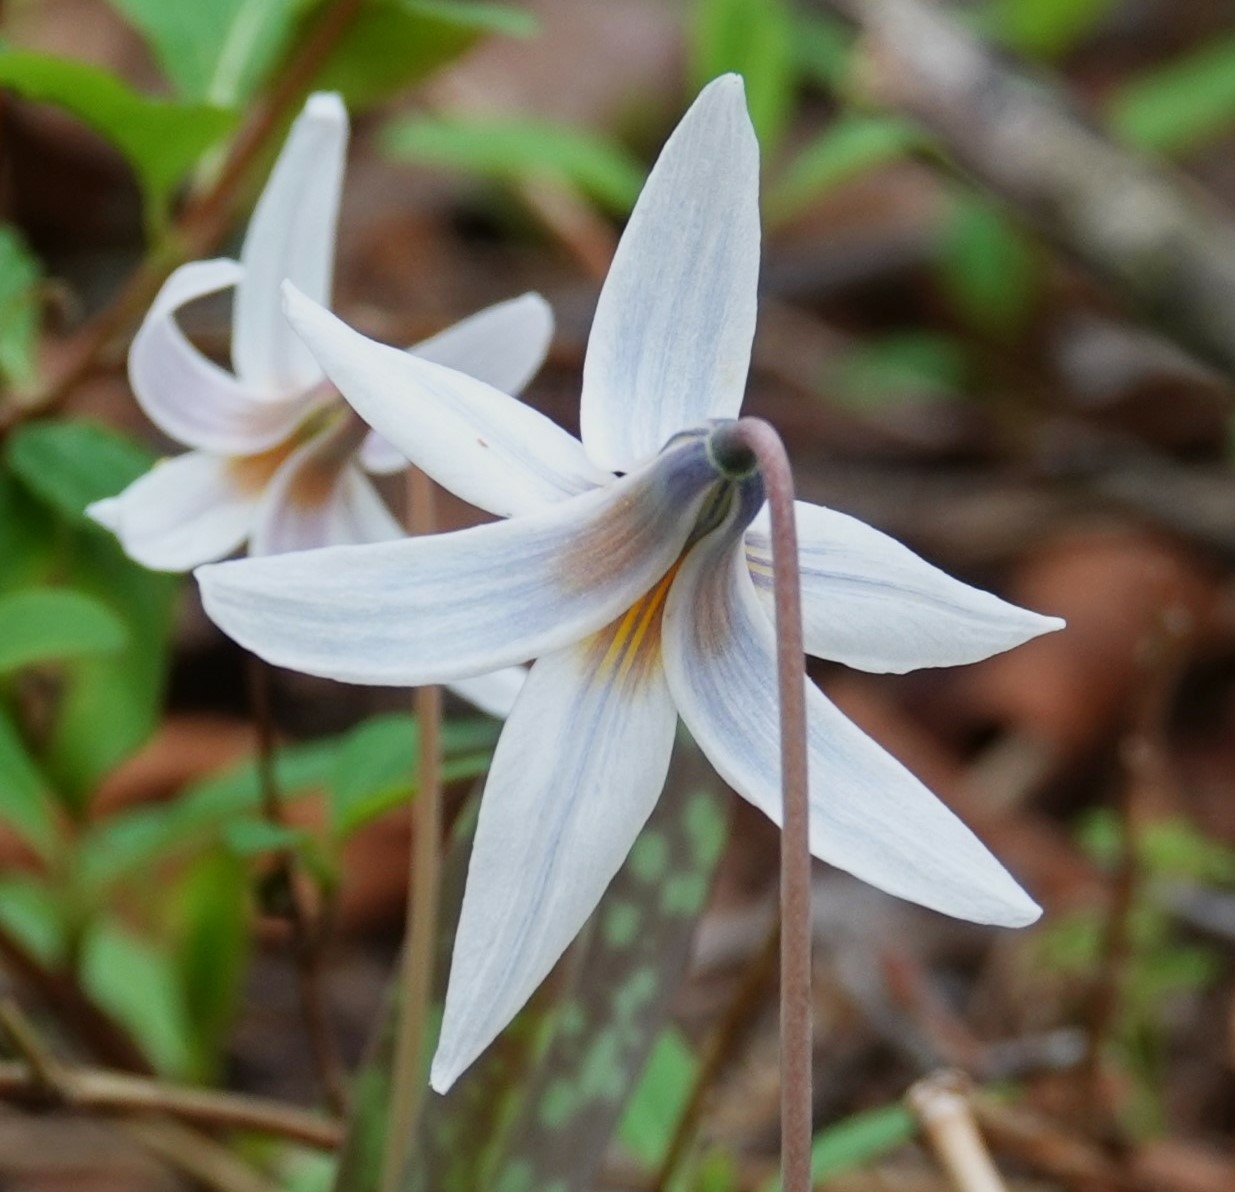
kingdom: Plantae
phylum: Tracheophyta
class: Liliopsida
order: Liliales
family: Liliaceae
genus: Erythronium
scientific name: Erythronium albidum
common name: White trout-lily
